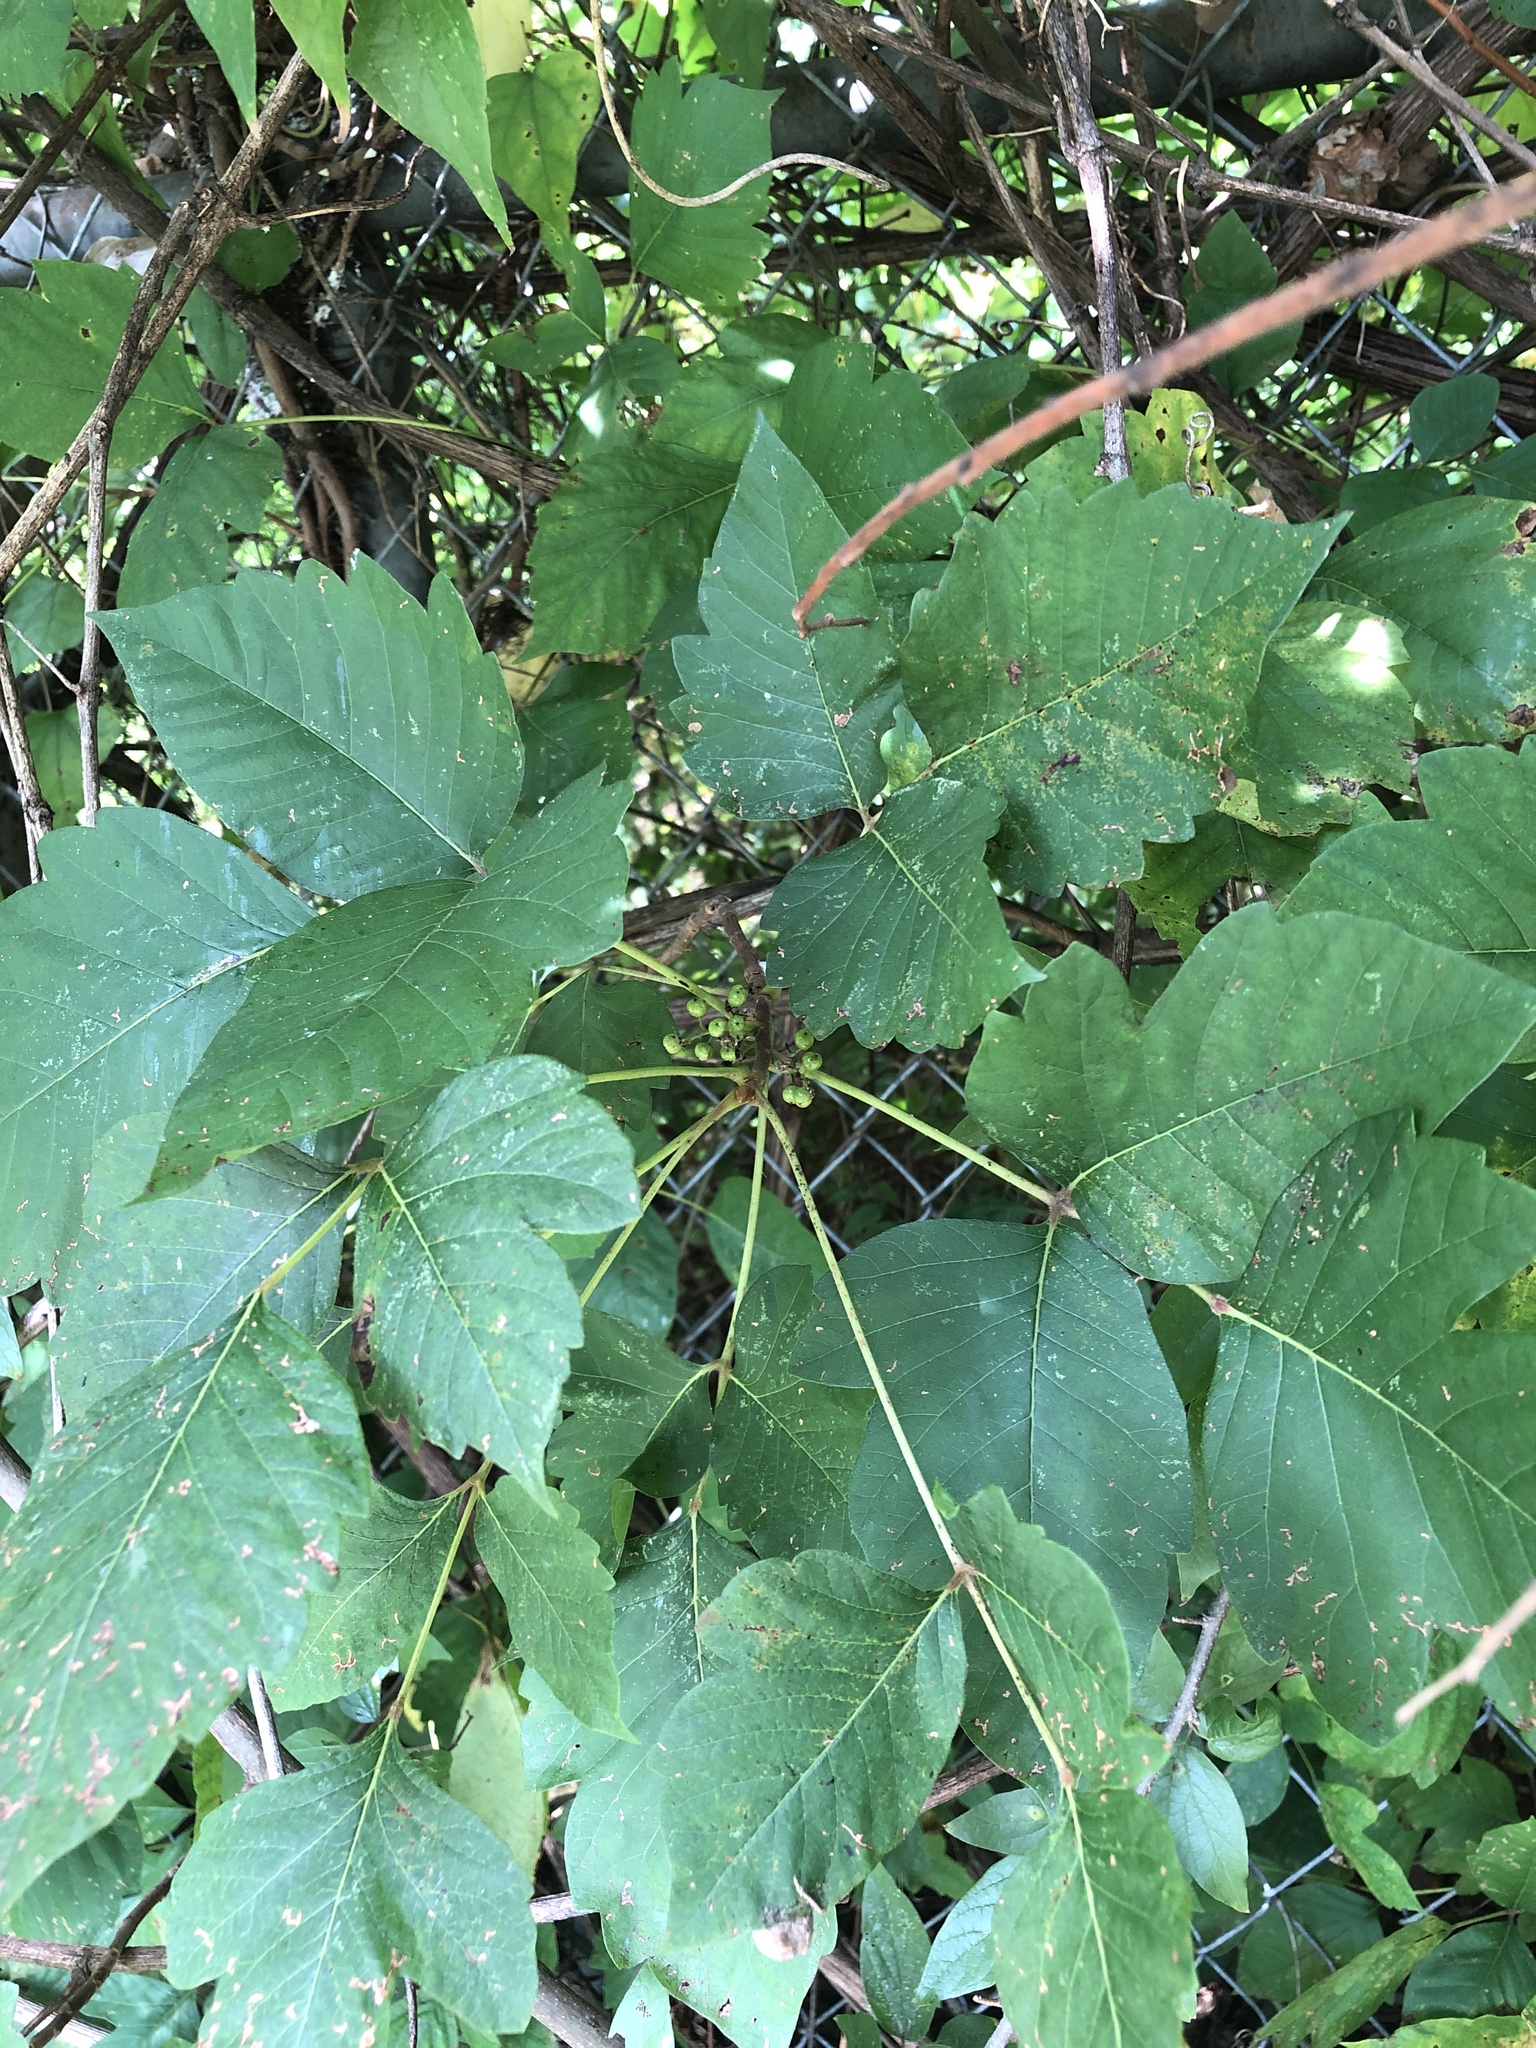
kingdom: Plantae
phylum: Tracheophyta
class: Magnoliopsida
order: Sapindales
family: Anacardiaceae
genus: Toxicodendron
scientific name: Toxicodendron radicans
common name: Poison ivy
